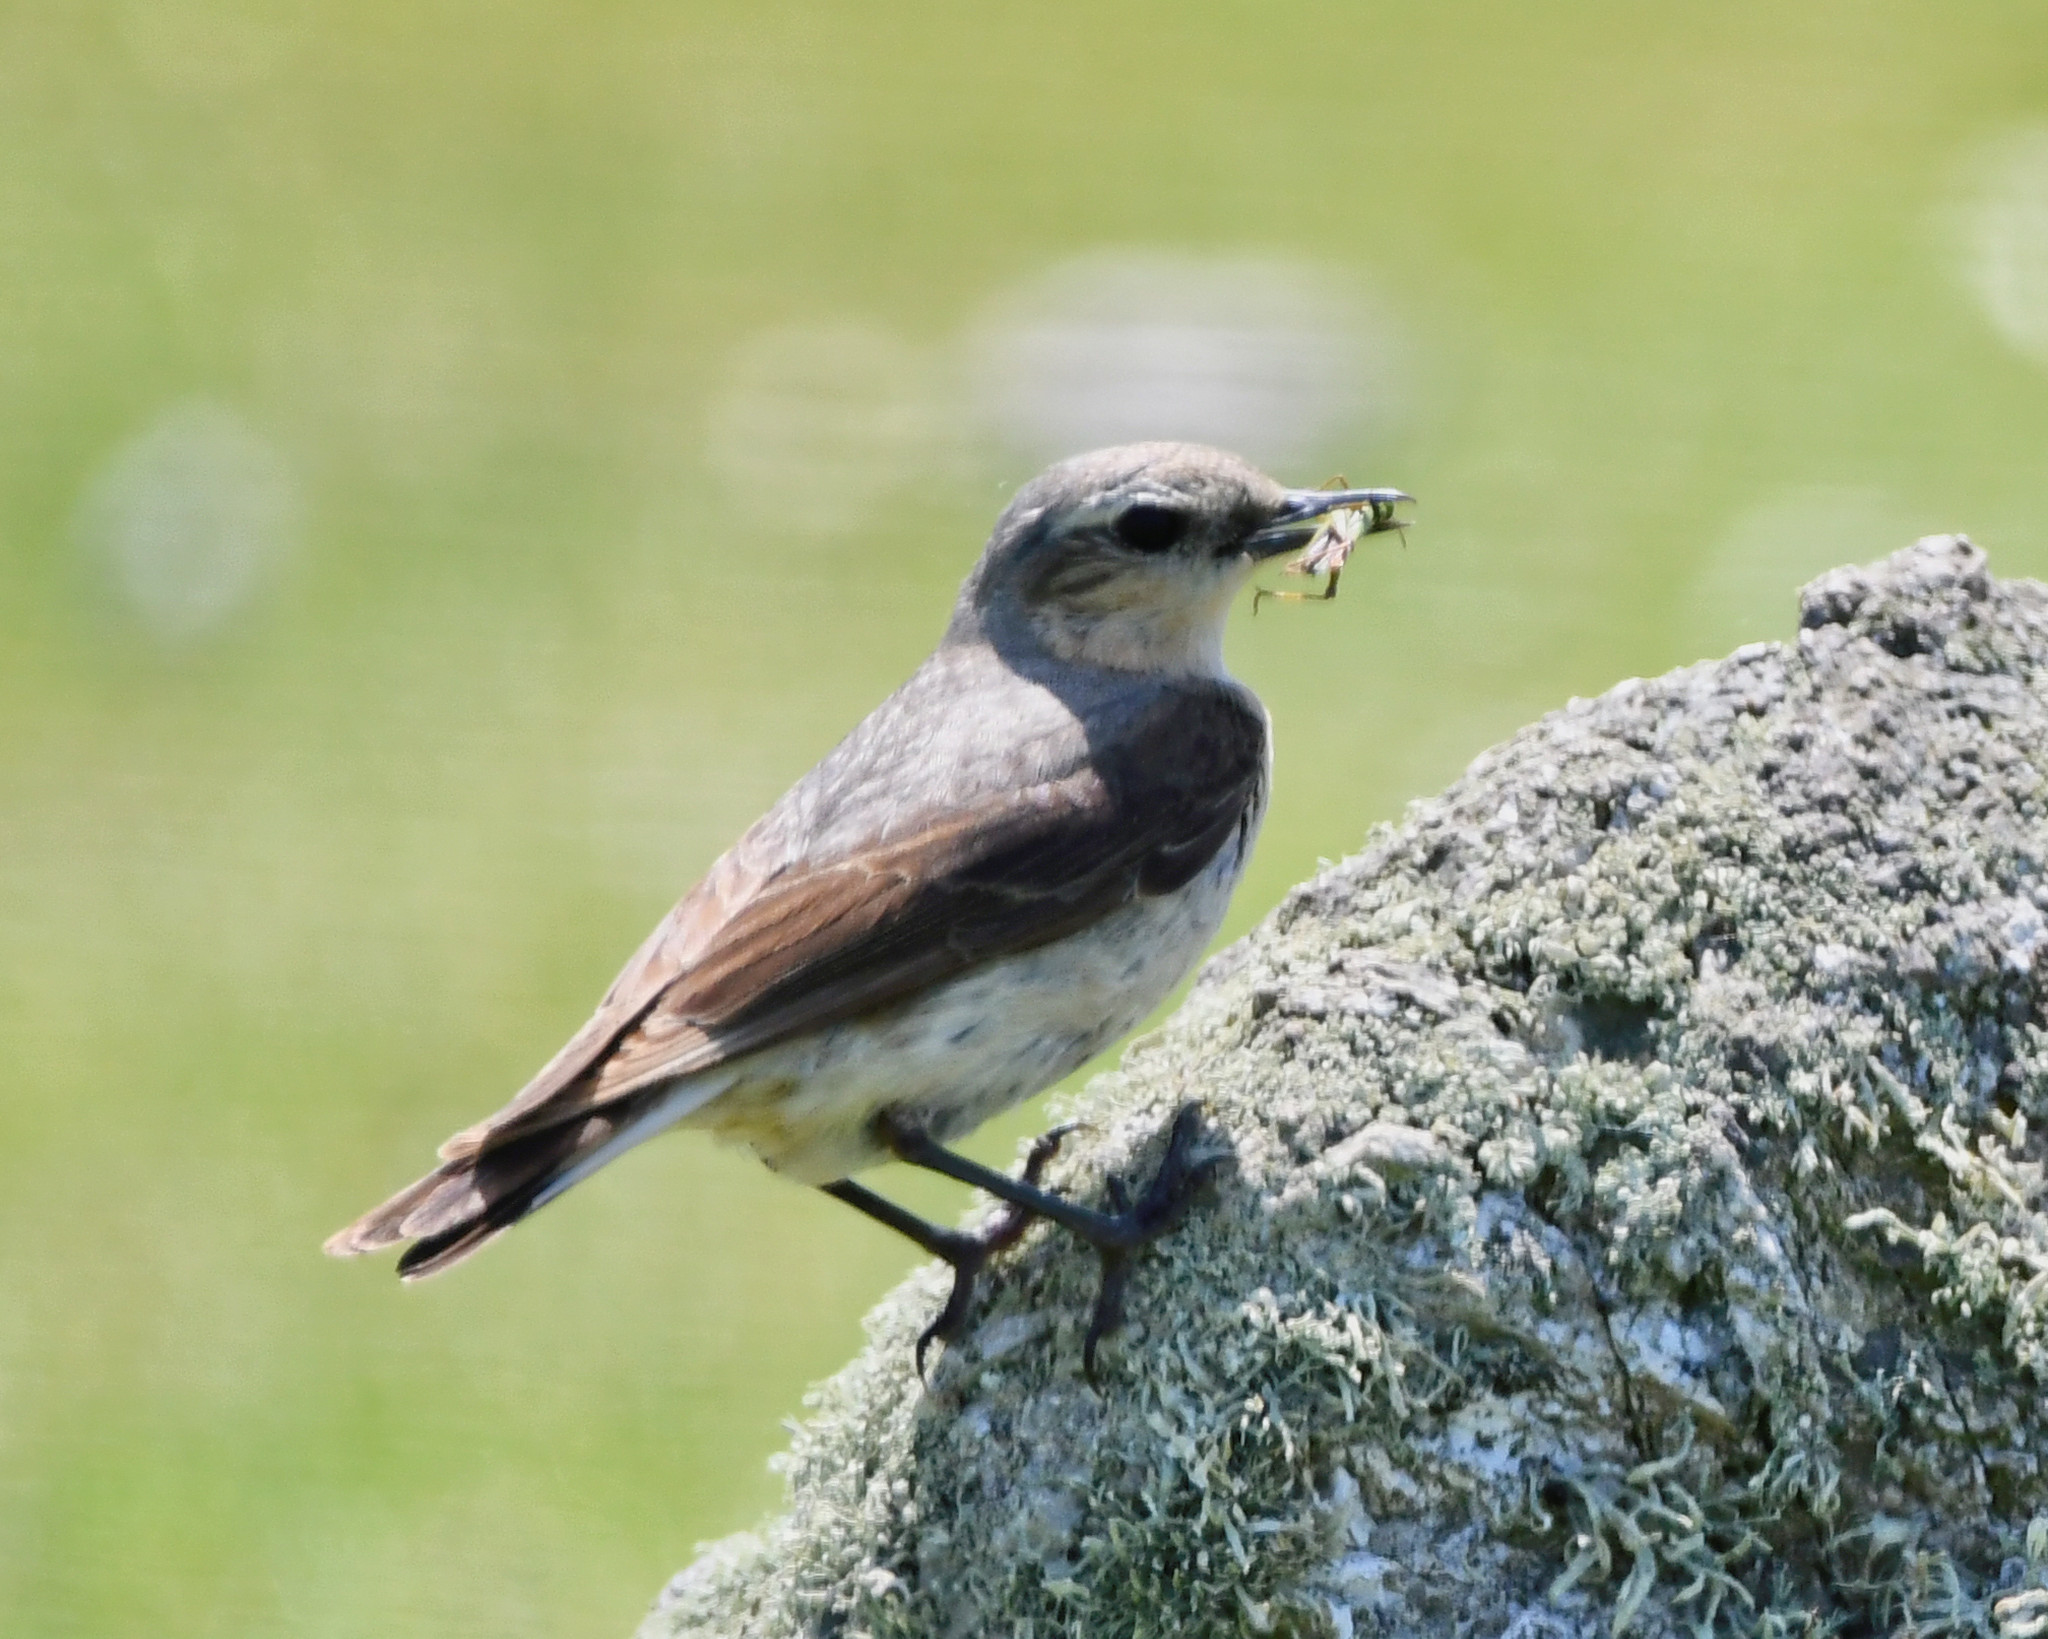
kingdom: Animalia
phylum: Chordata
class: Aves
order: Passeriformes
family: Muscicapidae
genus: Oenanthe
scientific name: Oenanthe oenanthe
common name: Northern wheatear
